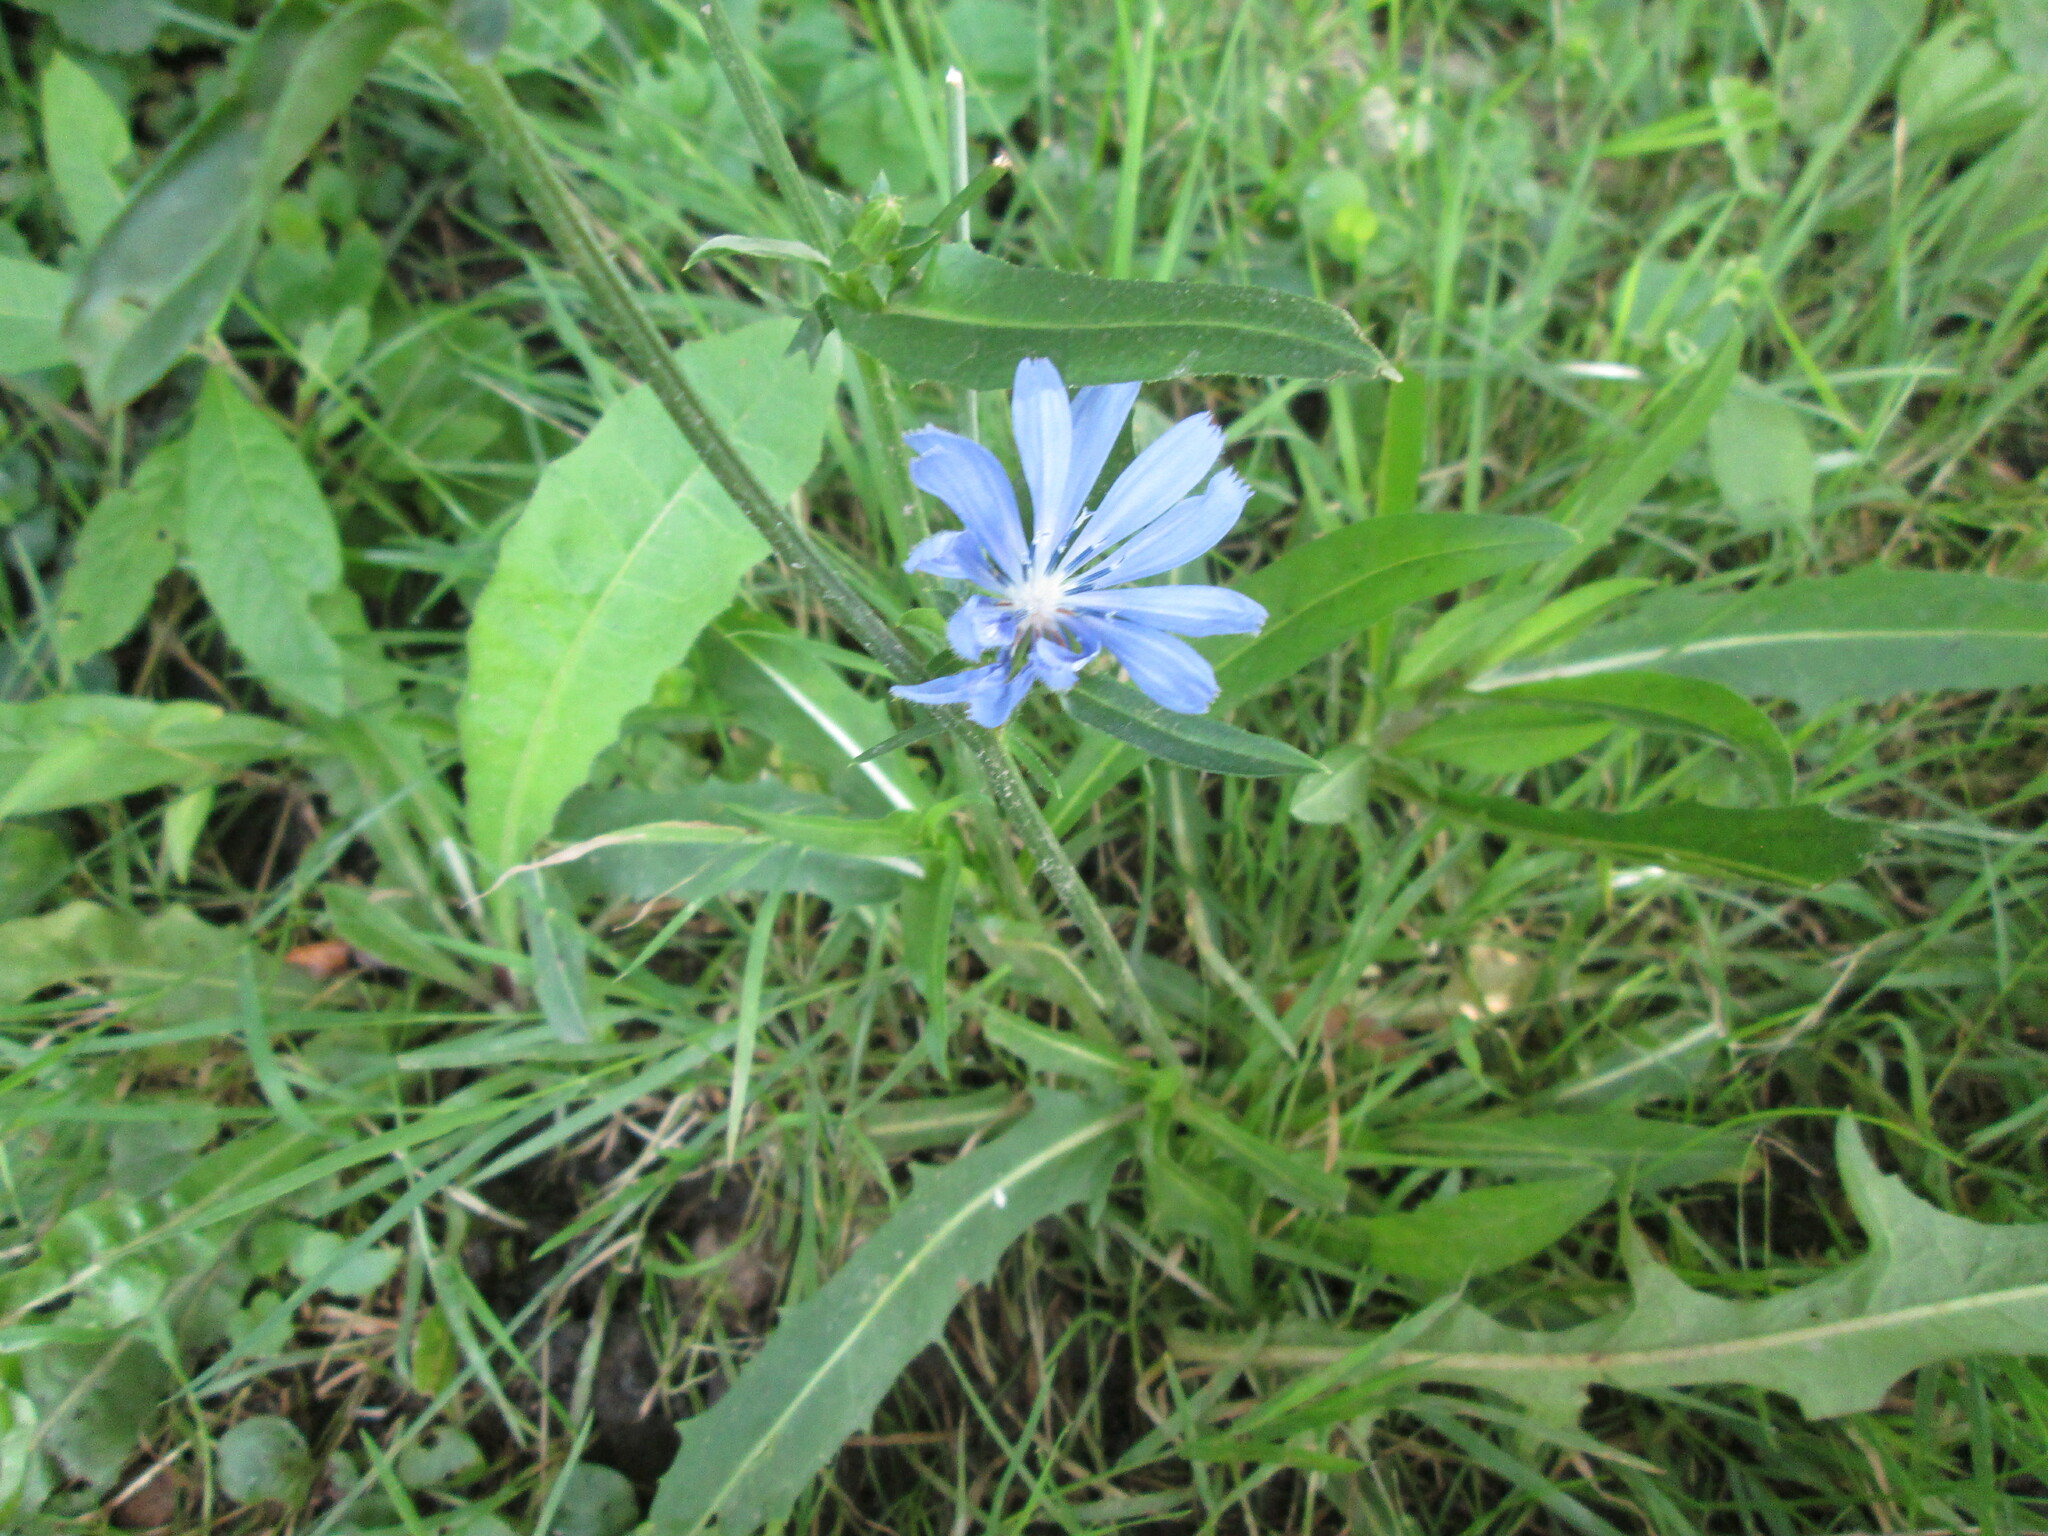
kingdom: Plantae
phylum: Tracheophyta
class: Magnoliopsida
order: Asterales
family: Asteraceae
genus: Cichorium
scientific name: Cichorium intybus
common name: Chicory
